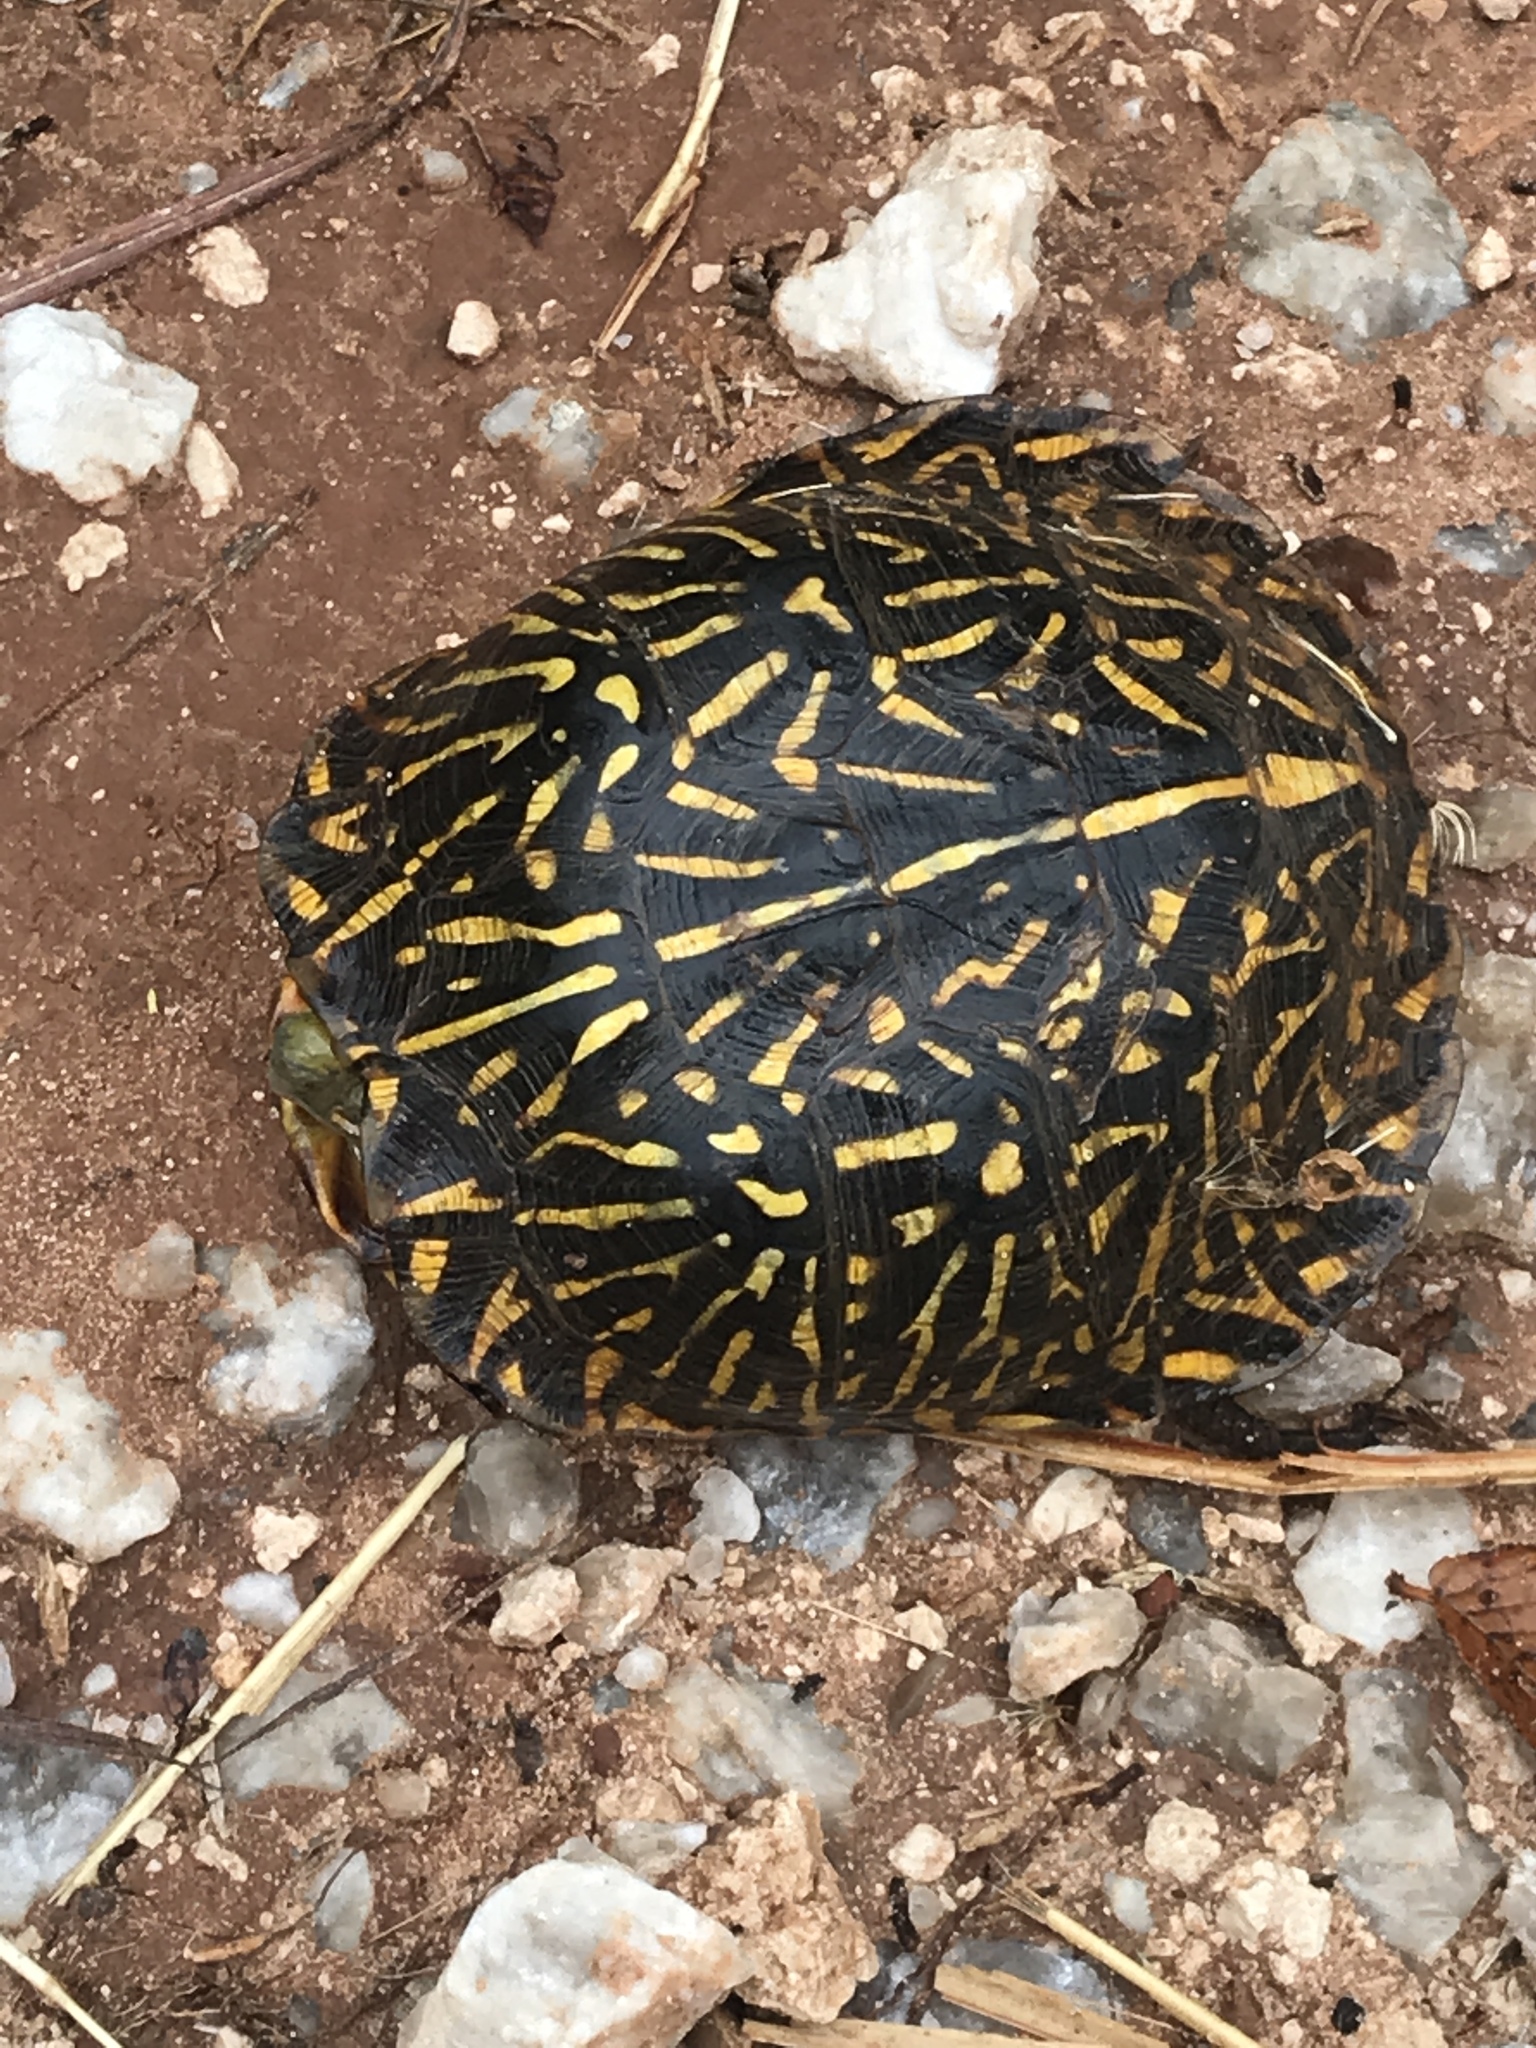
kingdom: Animalia
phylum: Chordata
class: Testudines
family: Emydidae
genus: Terrapene
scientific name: Terrapene ornata
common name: Western box turtle
